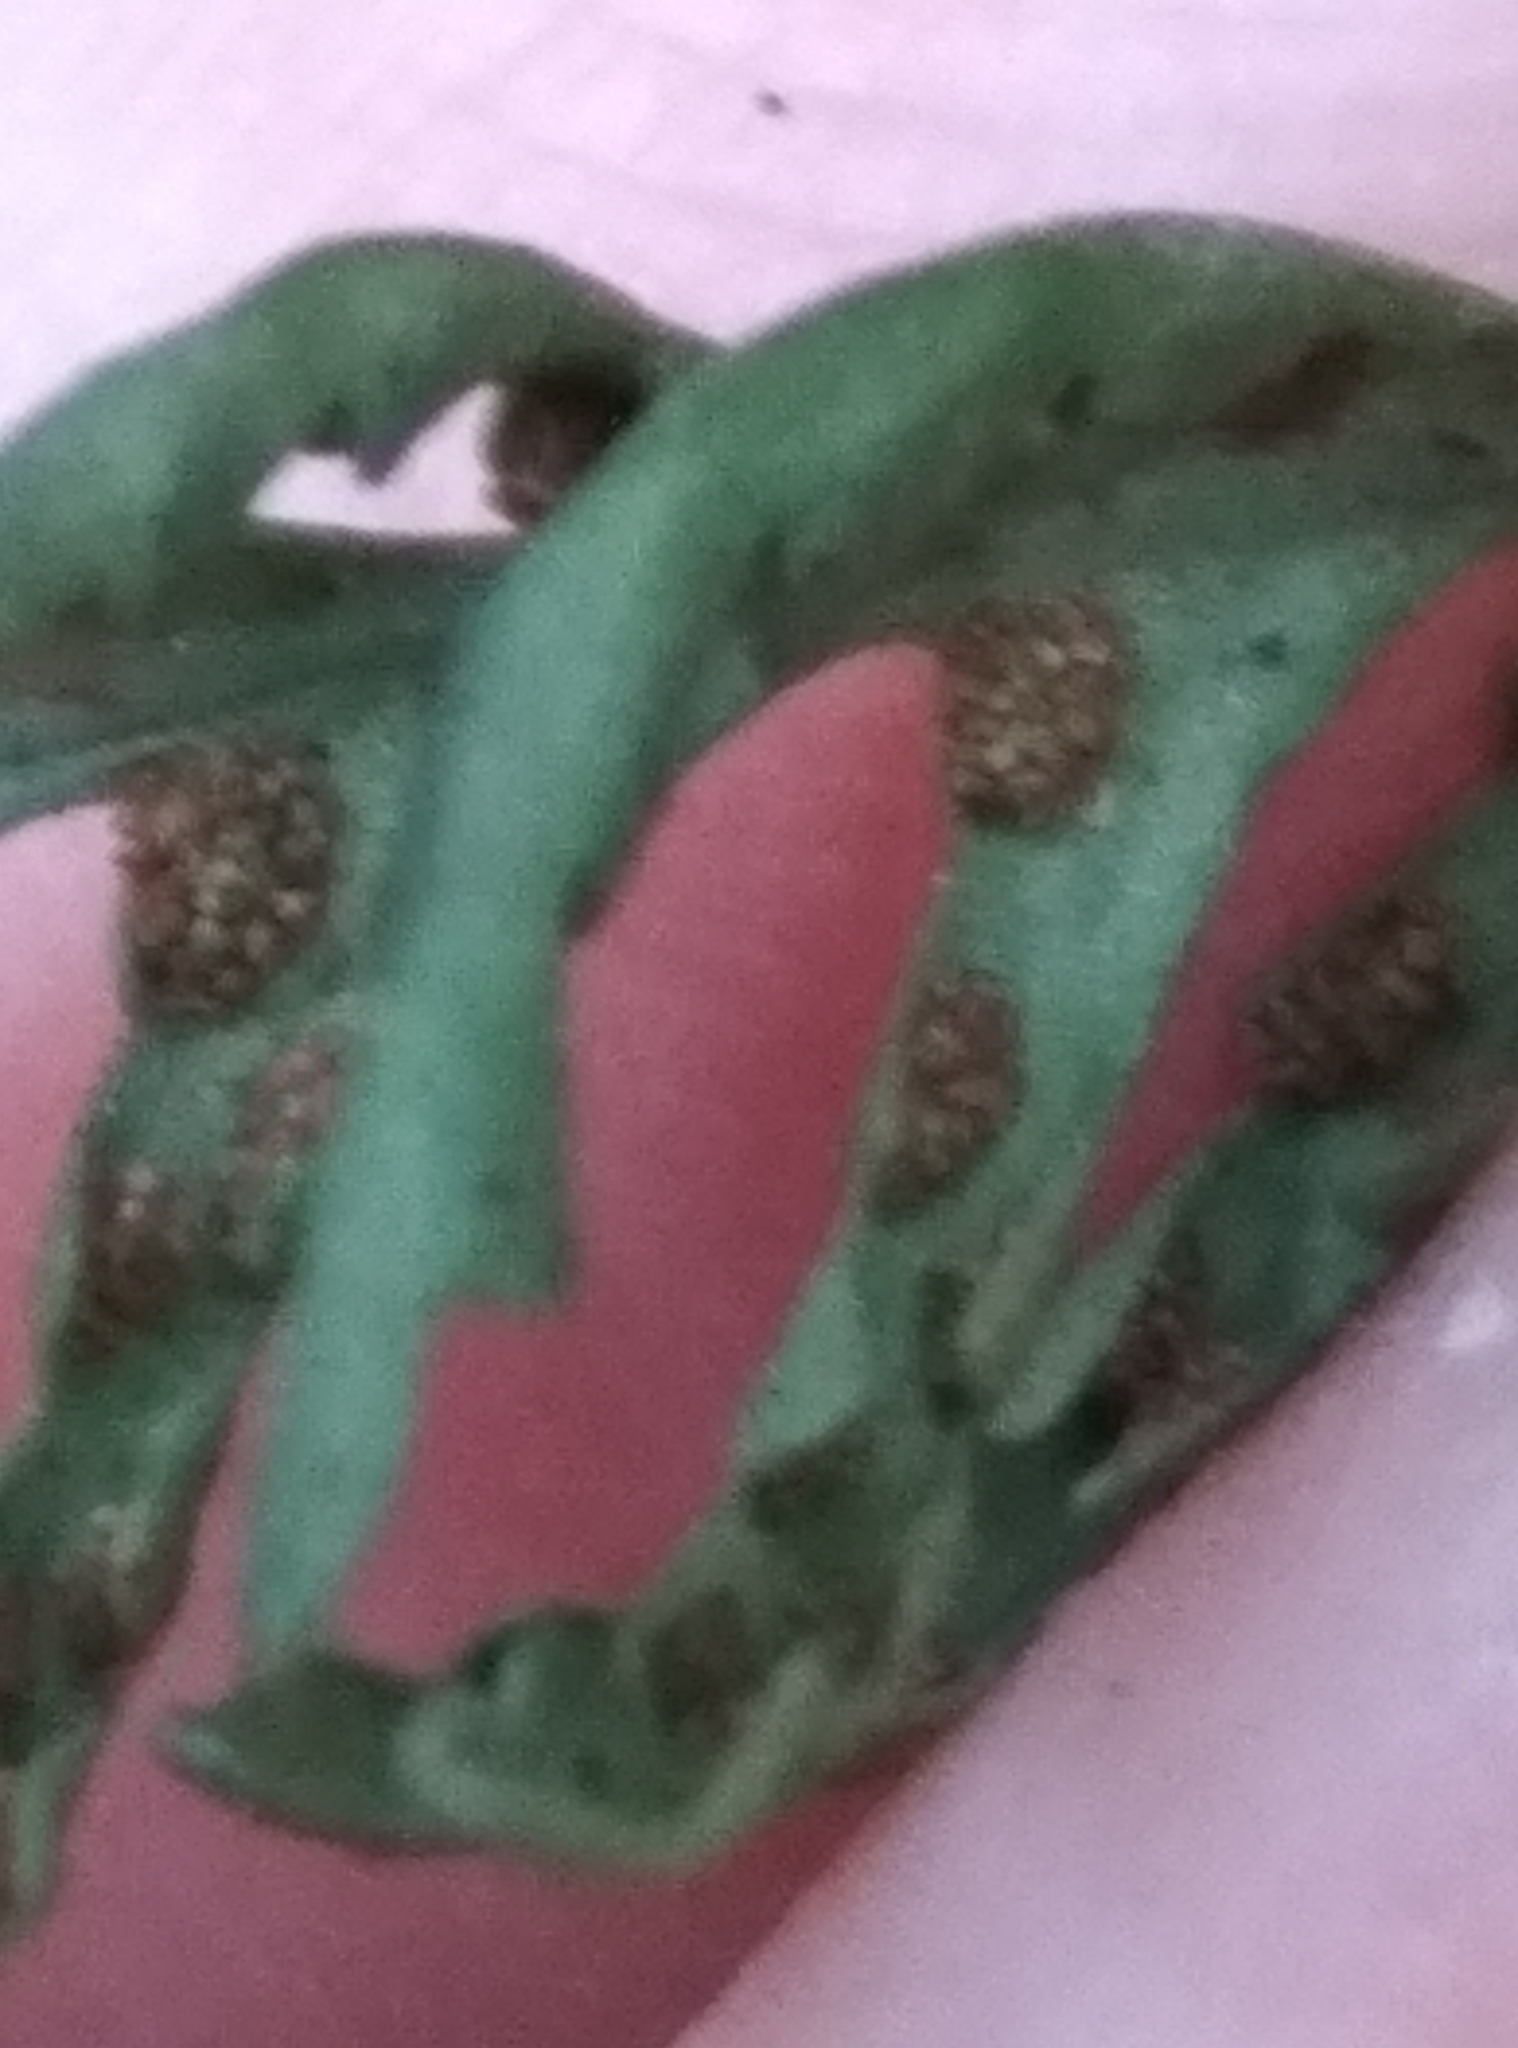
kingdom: Plantae
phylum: Tracheophyta
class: Polypodiopsida
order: Polypodiales
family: Polypodiaceae
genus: Notogrammitis
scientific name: Notogrammitis heterophylla
